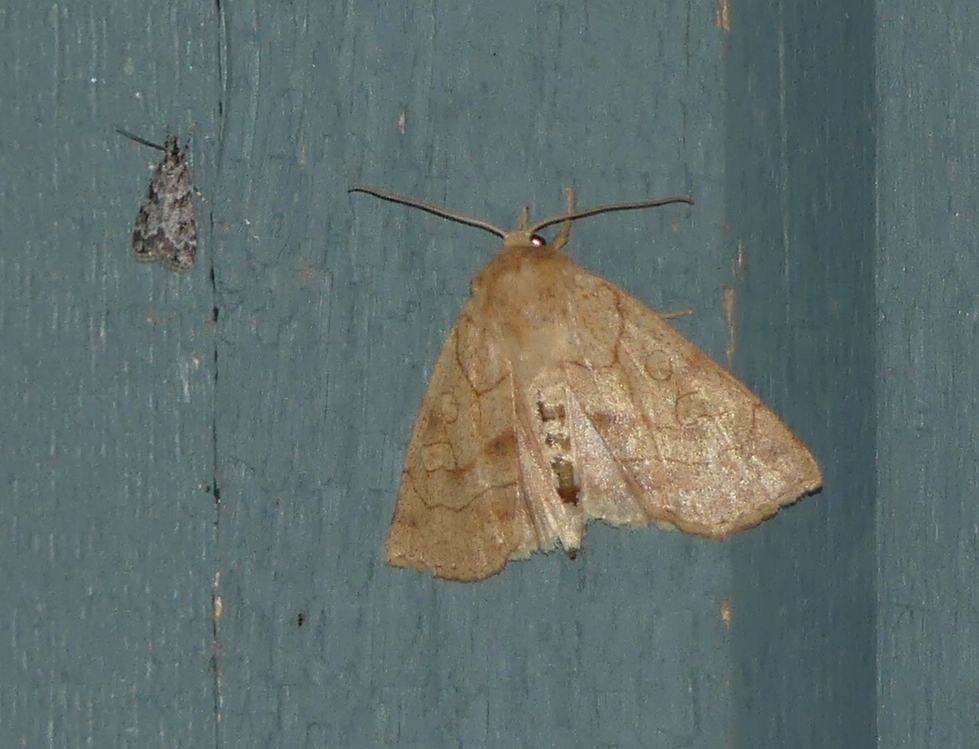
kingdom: Animalia
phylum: Arthropoda
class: Insecta
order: Lepidoptera
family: Noctuidae
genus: Enargia
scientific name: Enargia decolor
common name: Aspen twoleaf tier moth
